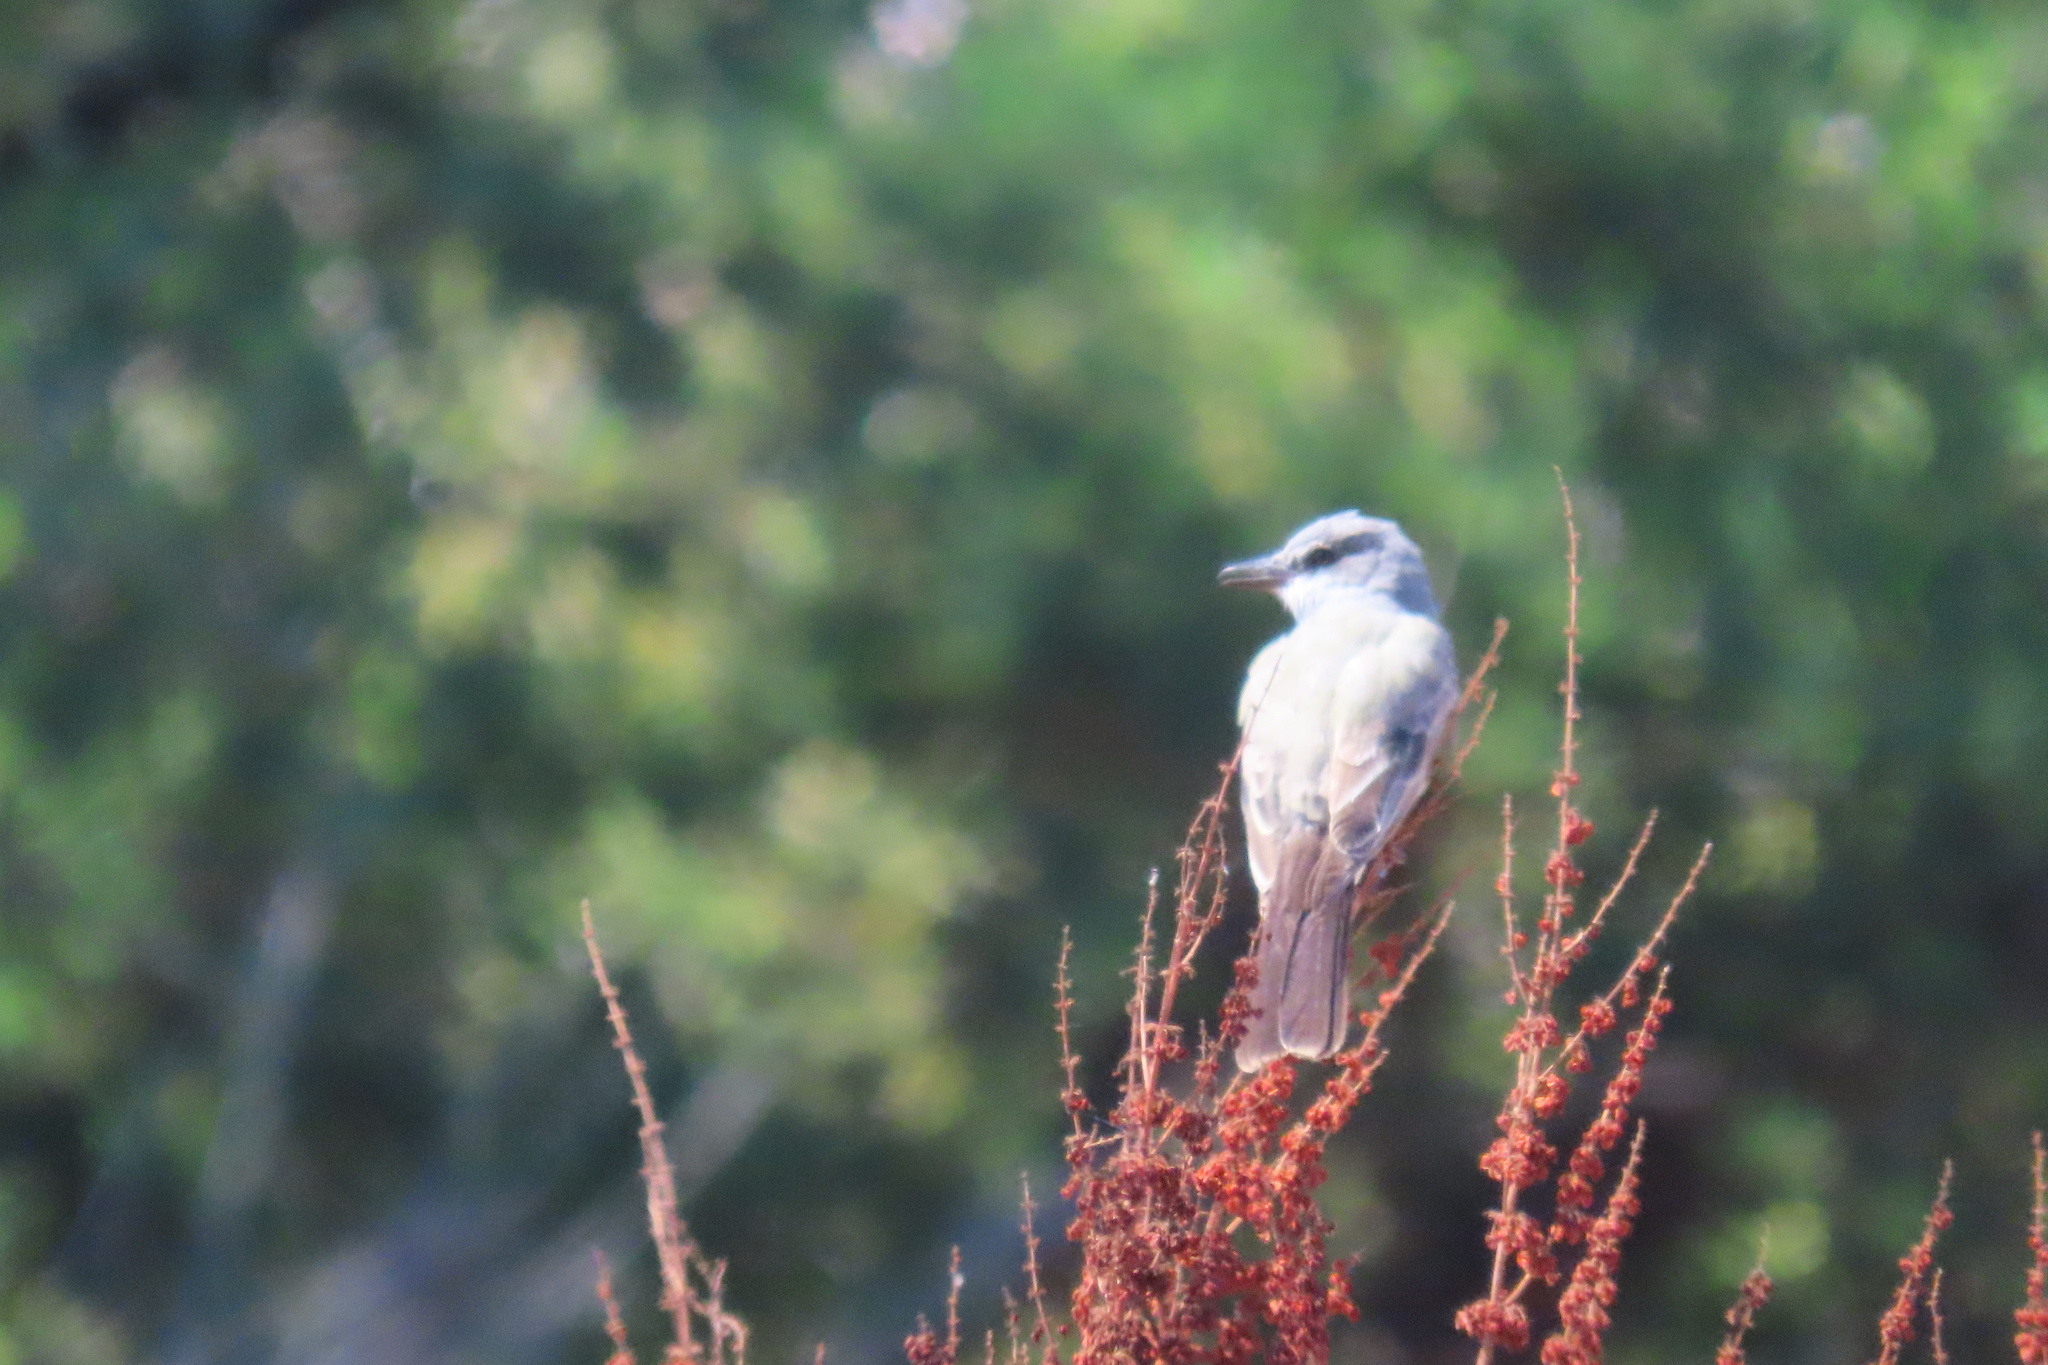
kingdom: Animalia
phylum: Chordata
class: Aves
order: Passeriformes
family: Tyrannidae
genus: Tyrannus
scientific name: Tyrannus vociferans
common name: Cassin's kingbird
